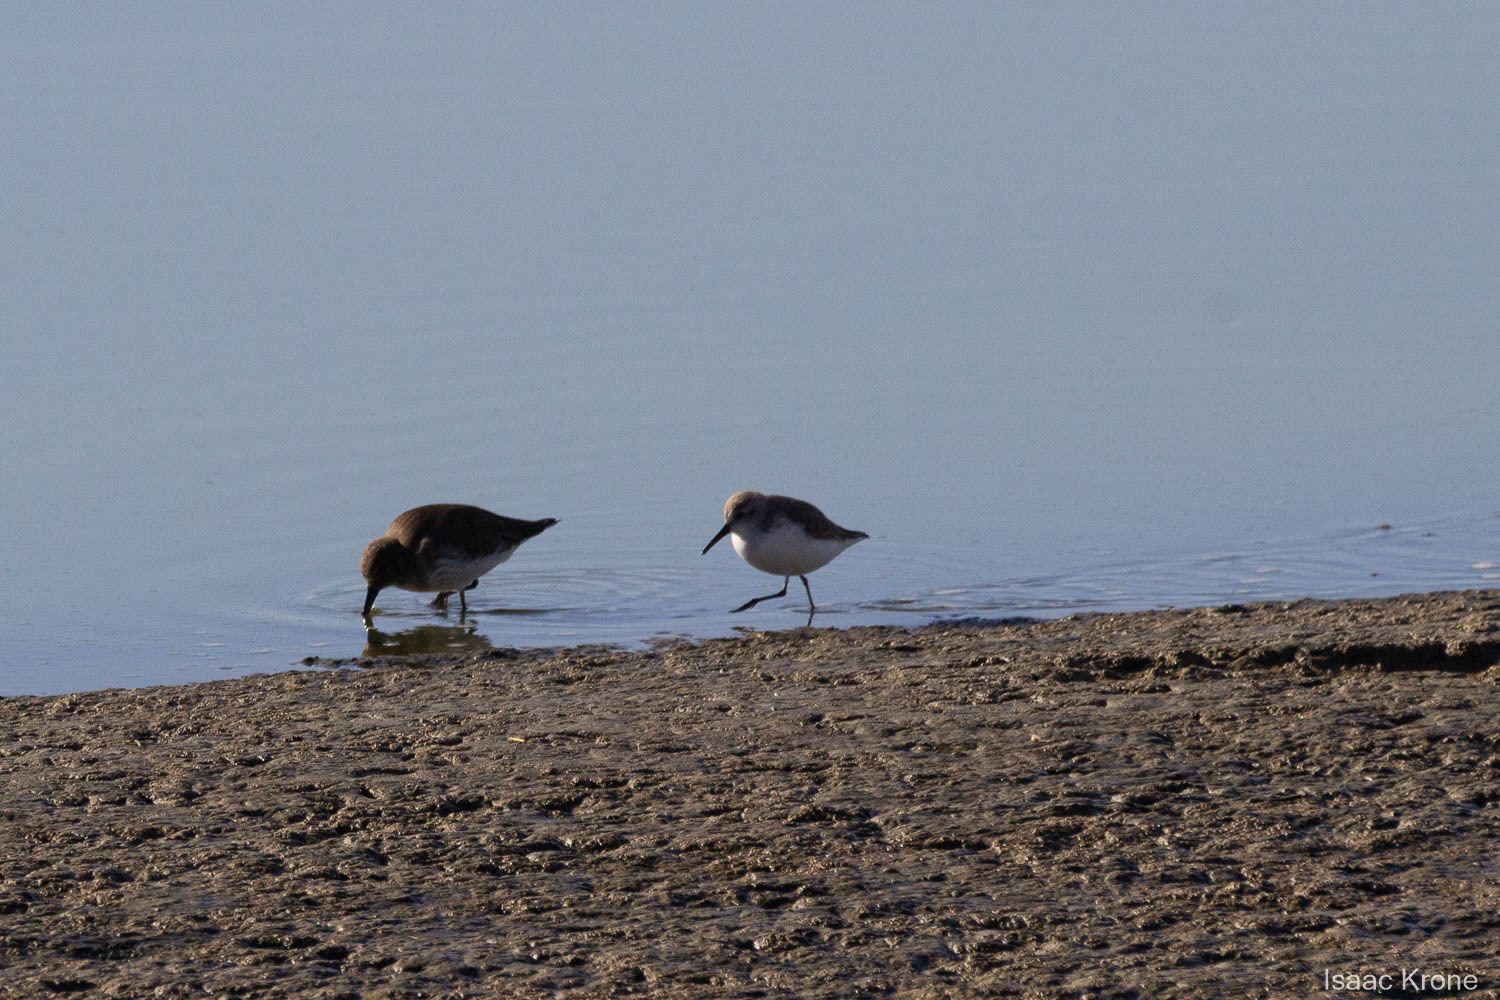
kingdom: Animalia
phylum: Chordata
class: Aves
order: Charadriiformes
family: Scolopacidae
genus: Calidris
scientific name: Calidris mauri
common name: Western sandpiper
